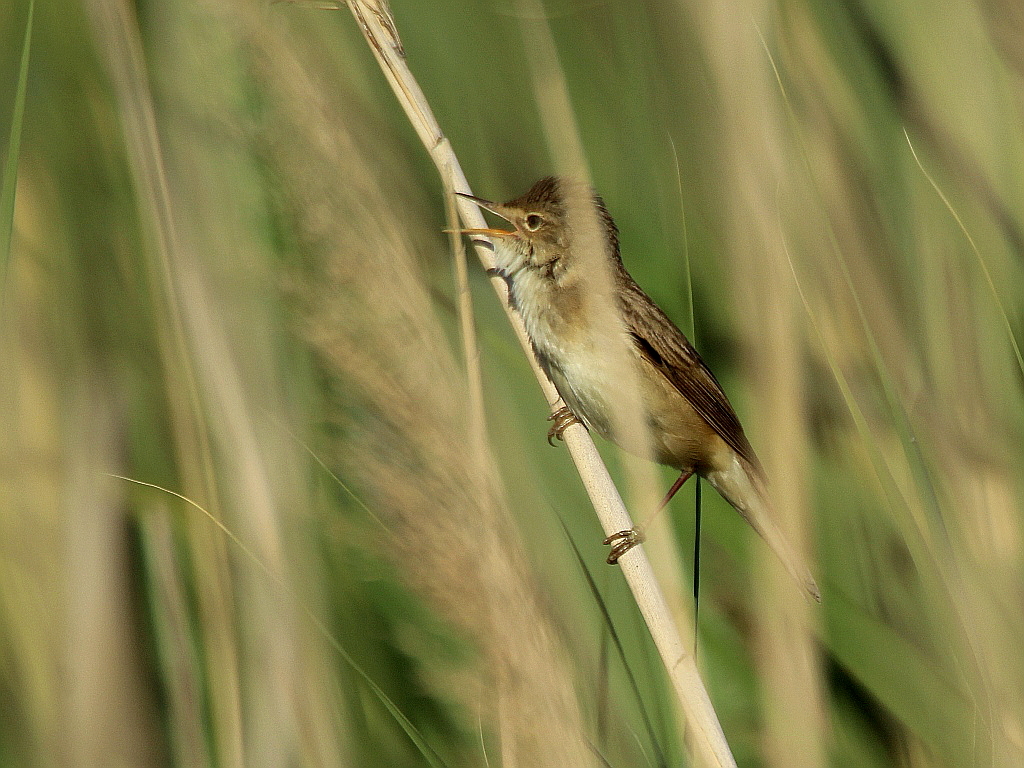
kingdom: Animalia
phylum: Chordata
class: Aves
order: Passeriformes
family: Acrocephalidae
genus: Acrocephalus
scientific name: Acrocephalus scirpaceus
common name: Eurasian reed warbler
